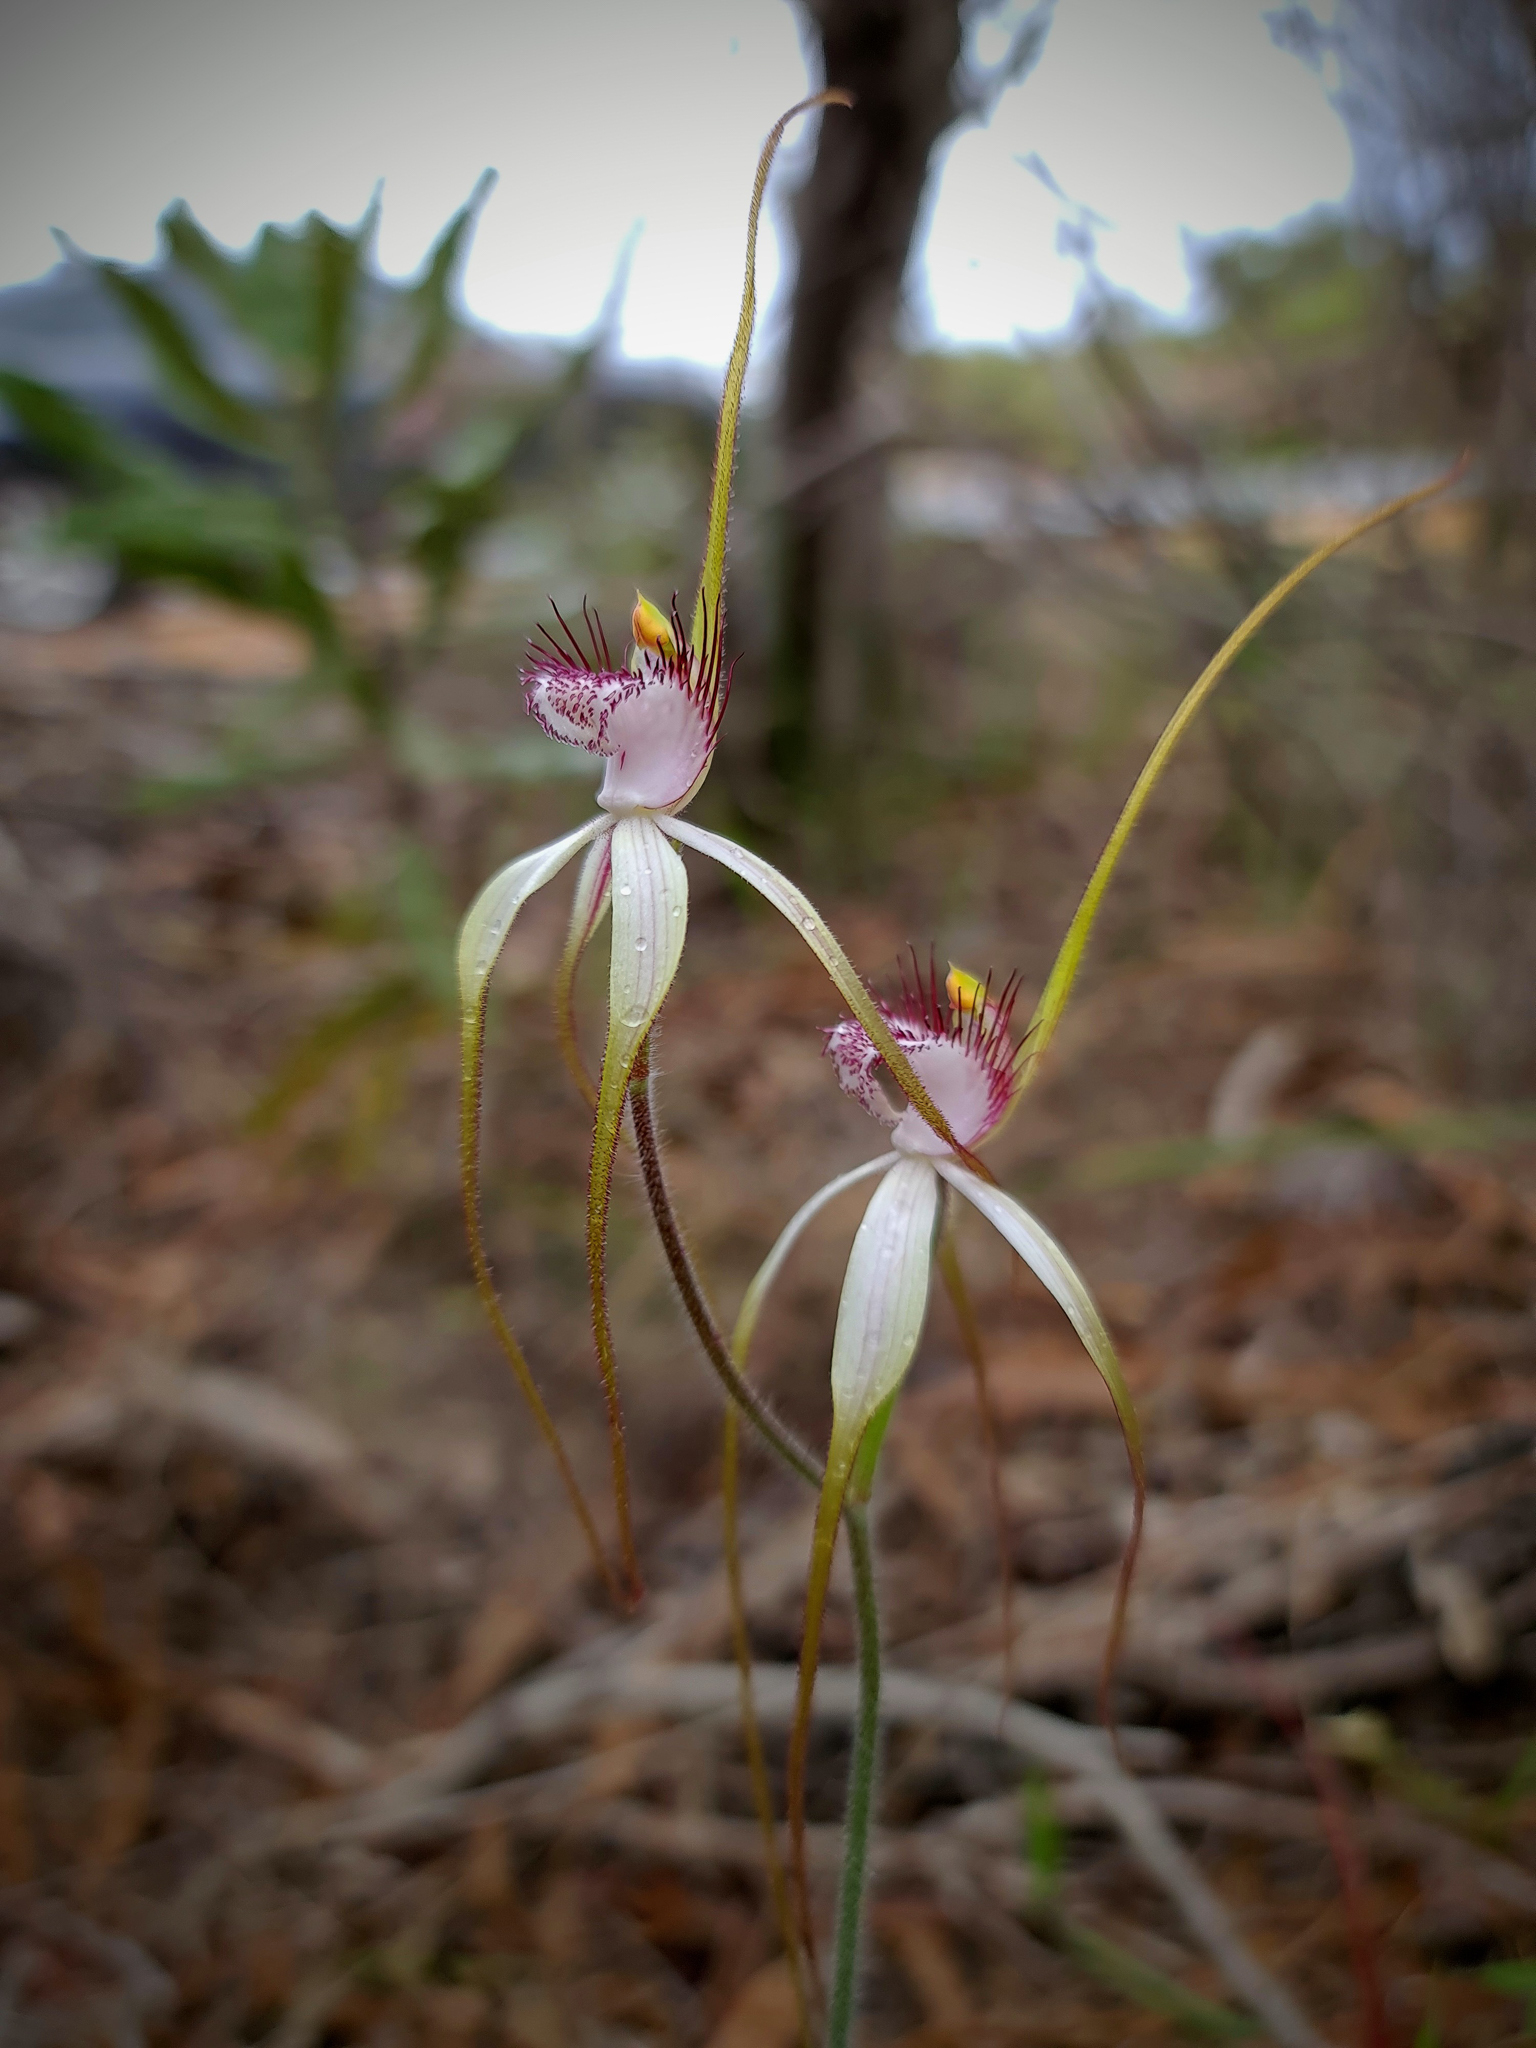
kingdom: Plantae
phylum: Tracheophyta
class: Liliopsida
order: Asparagales
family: Orchidaceae
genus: Caladenia
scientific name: Caladenia longicauda
